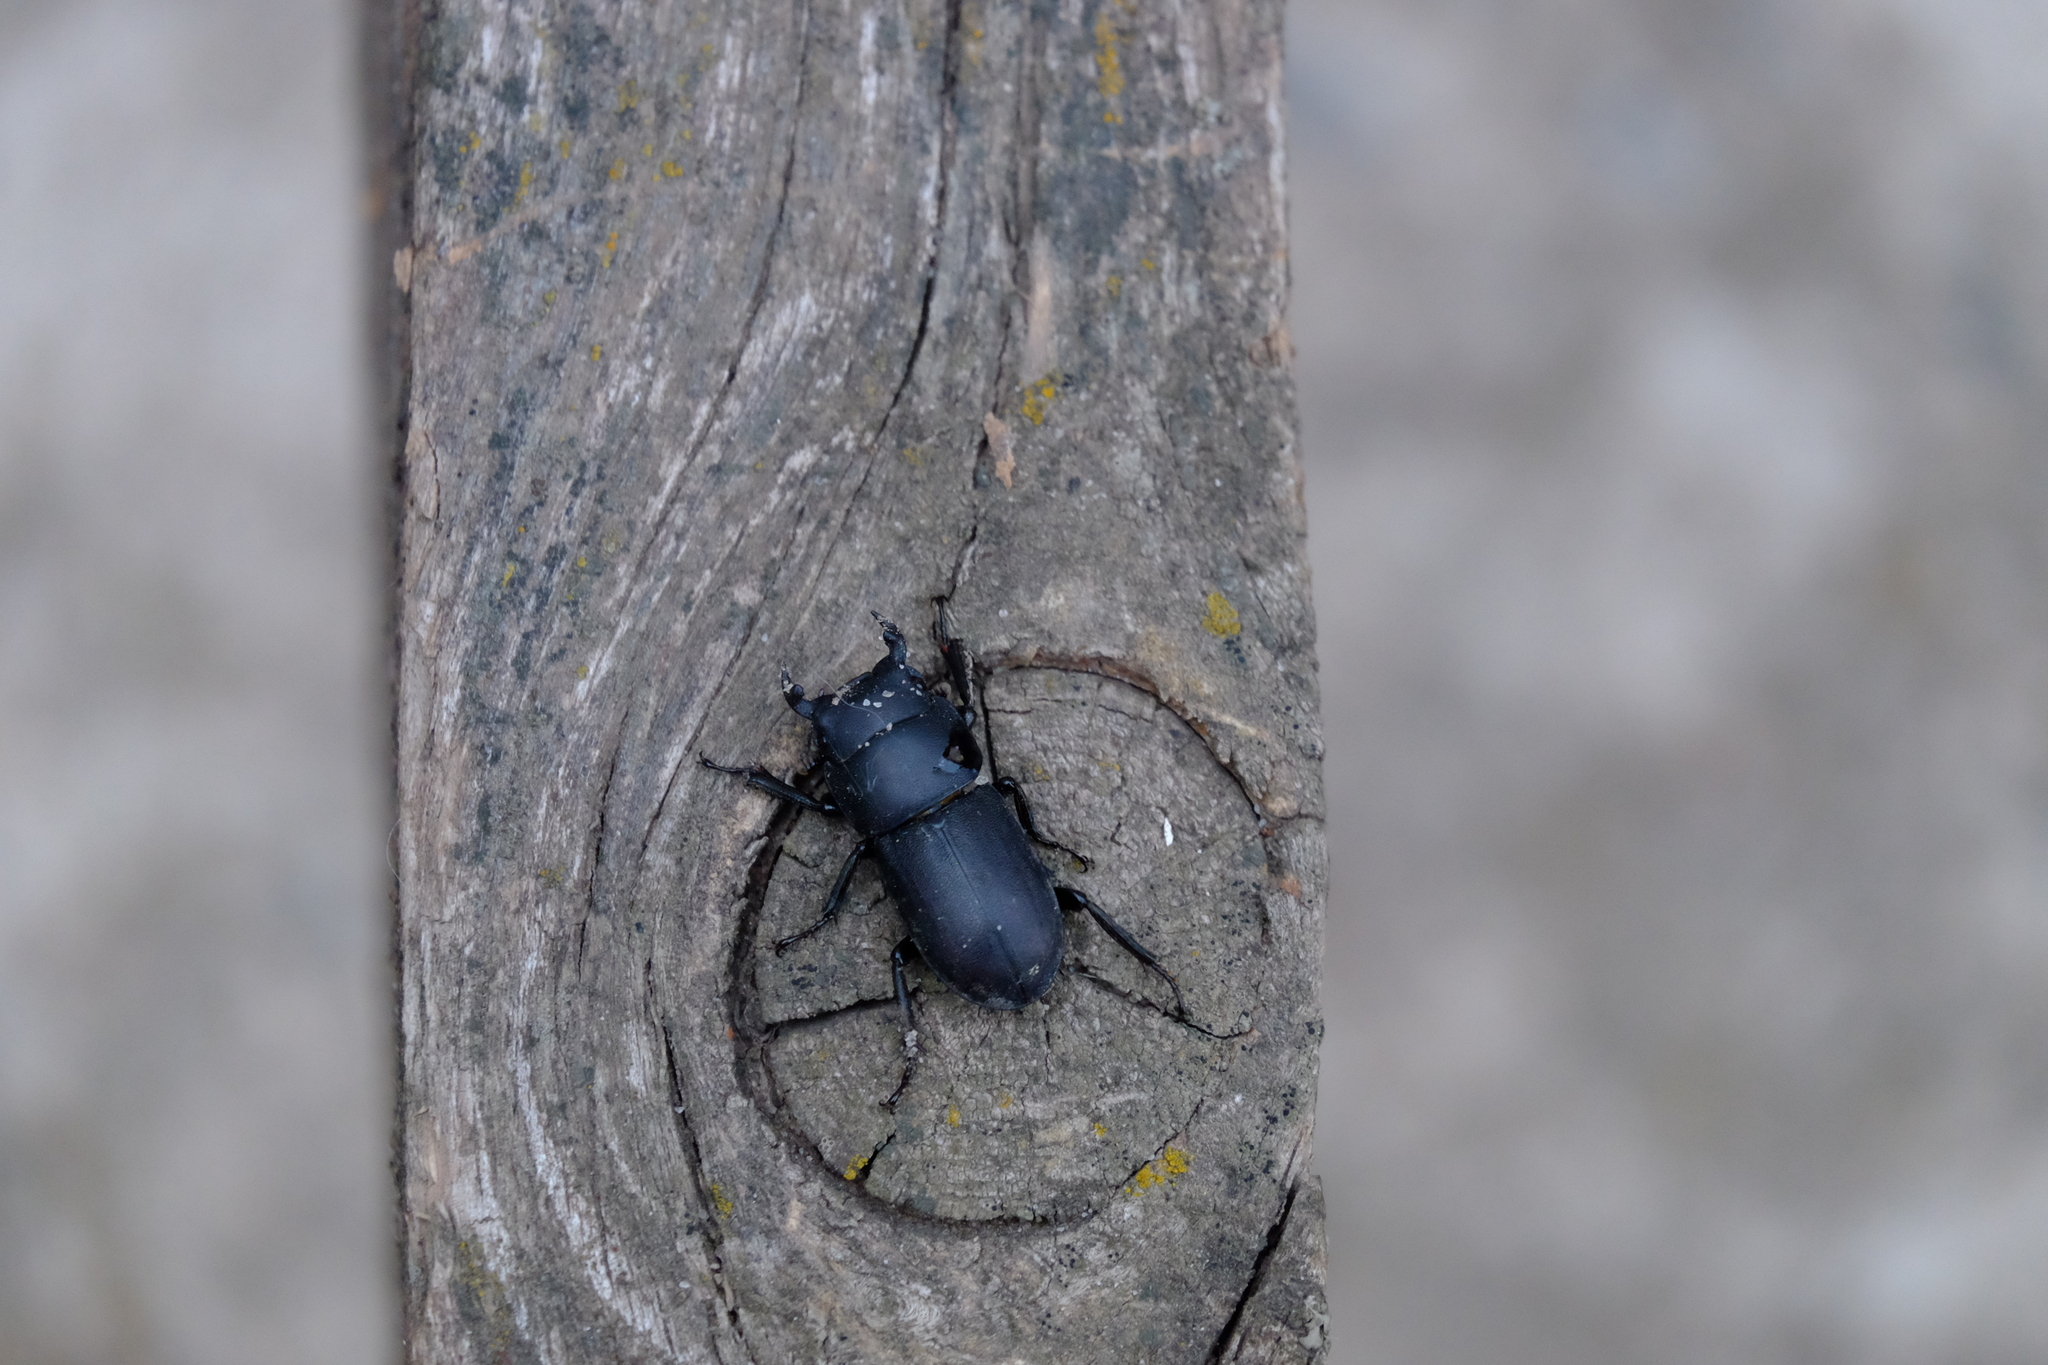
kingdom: Animalia
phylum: Arthropoda
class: Insecta
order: Coleoptera
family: Lucanidae
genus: Dorcus
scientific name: Dorcus parallelipipedus
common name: Lesser stag beetle
